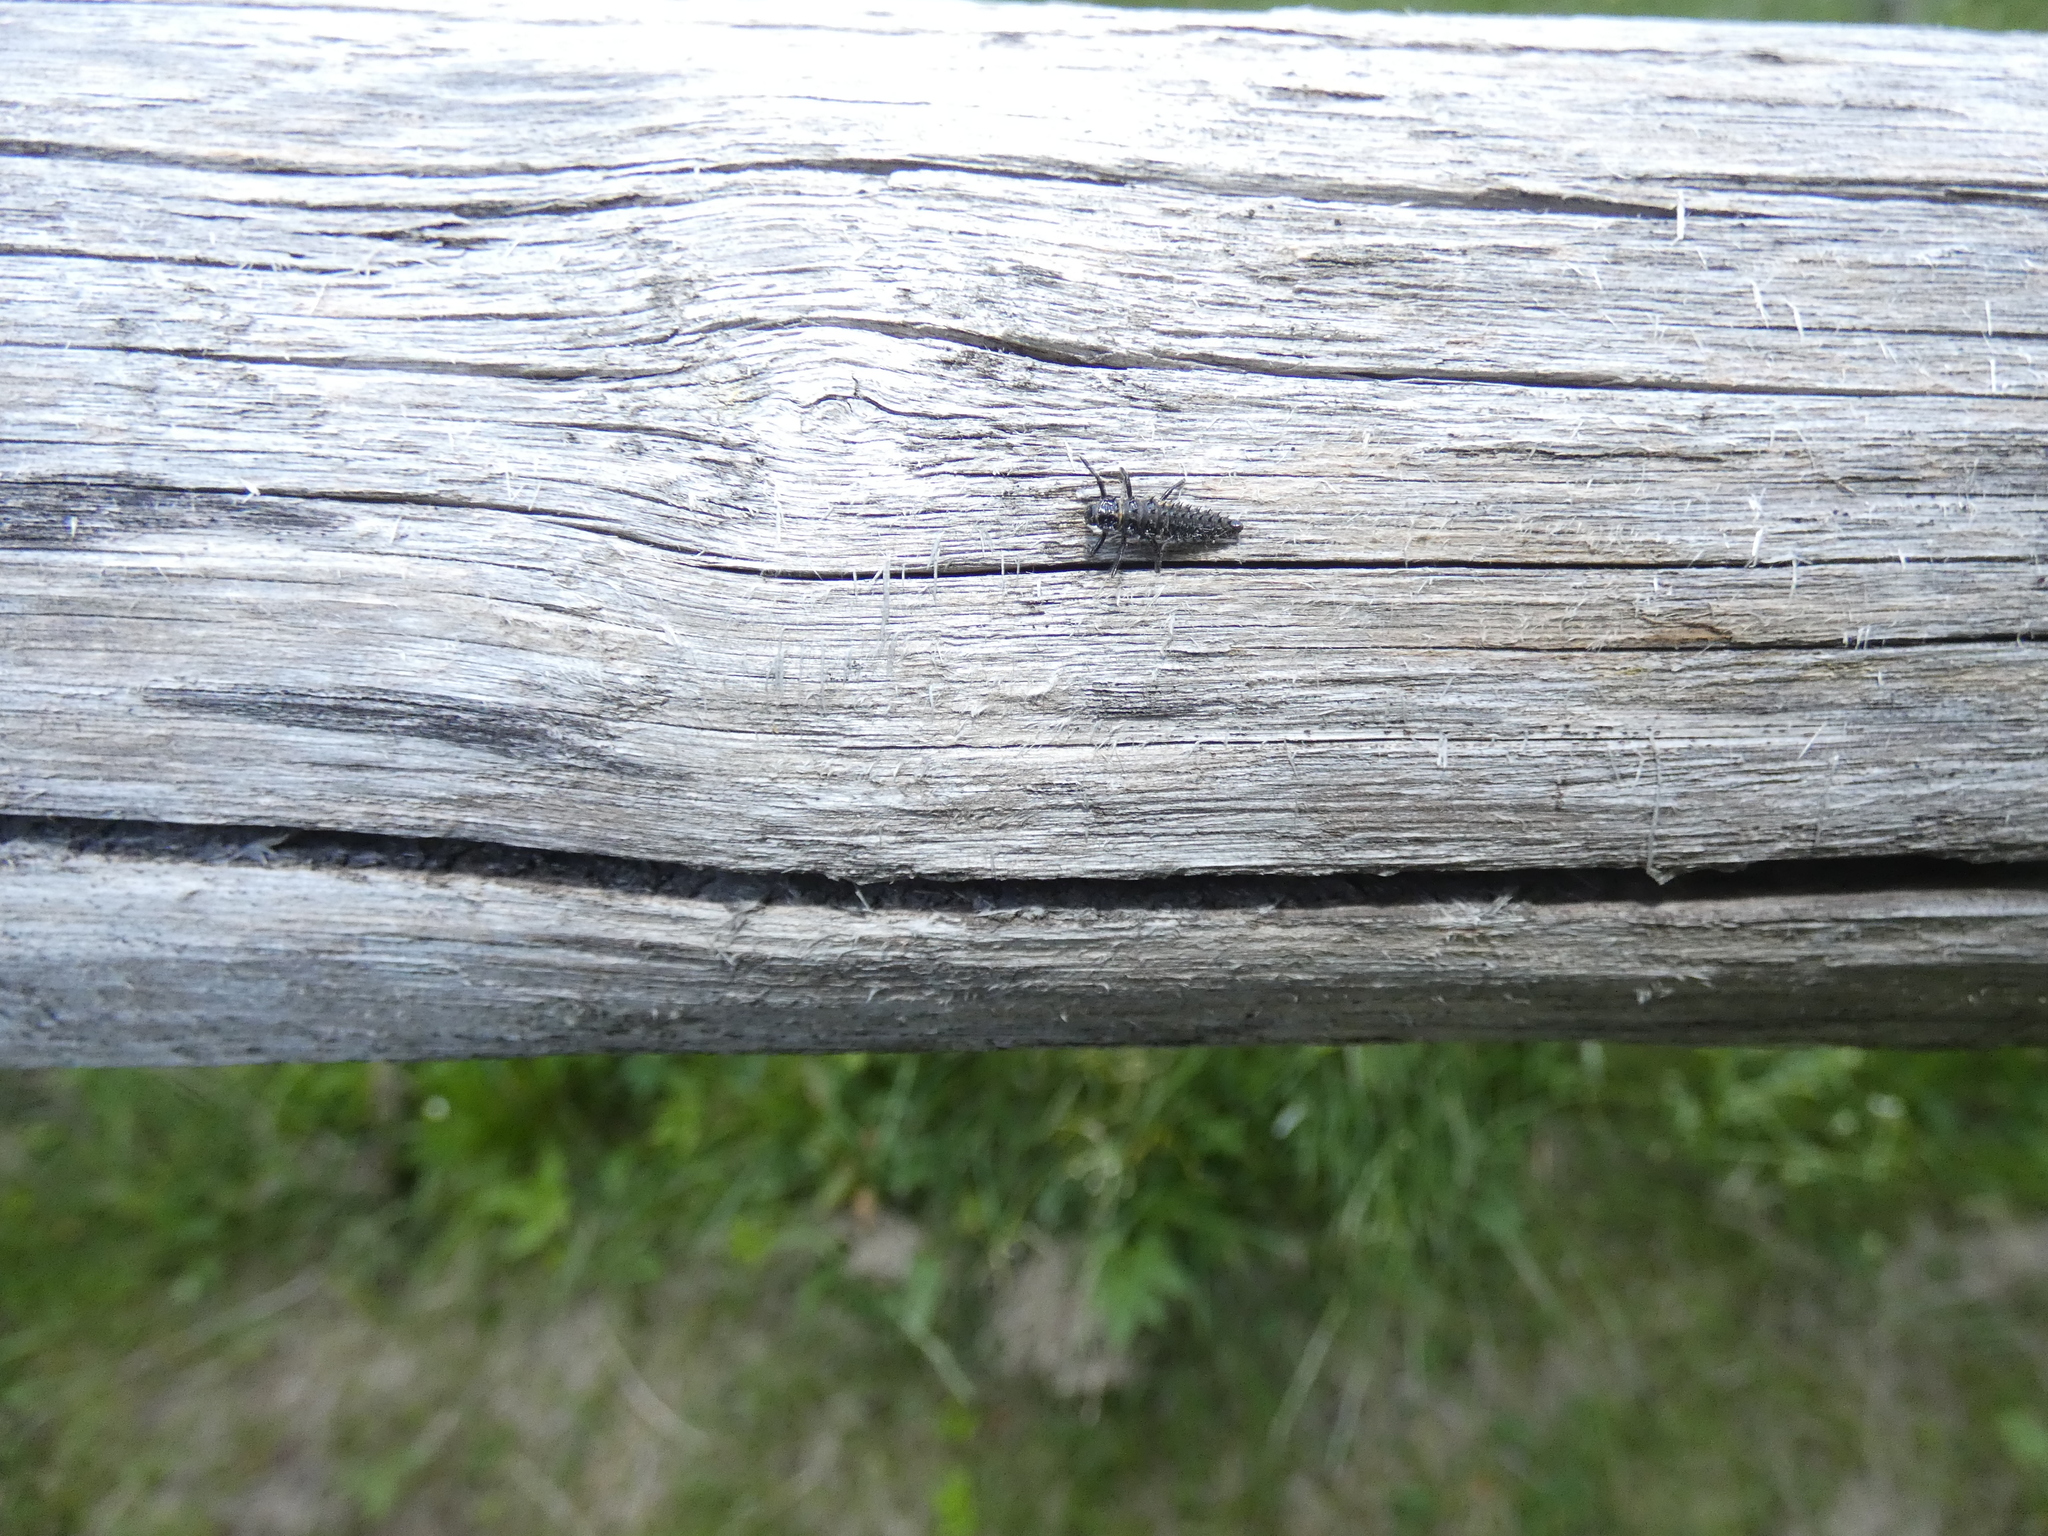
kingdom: Animalia
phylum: Arthropoda
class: Insecta
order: Coleoptera
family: Coccinellidae
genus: Anatis
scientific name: Anatis ocellata
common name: Eyed ladybird
